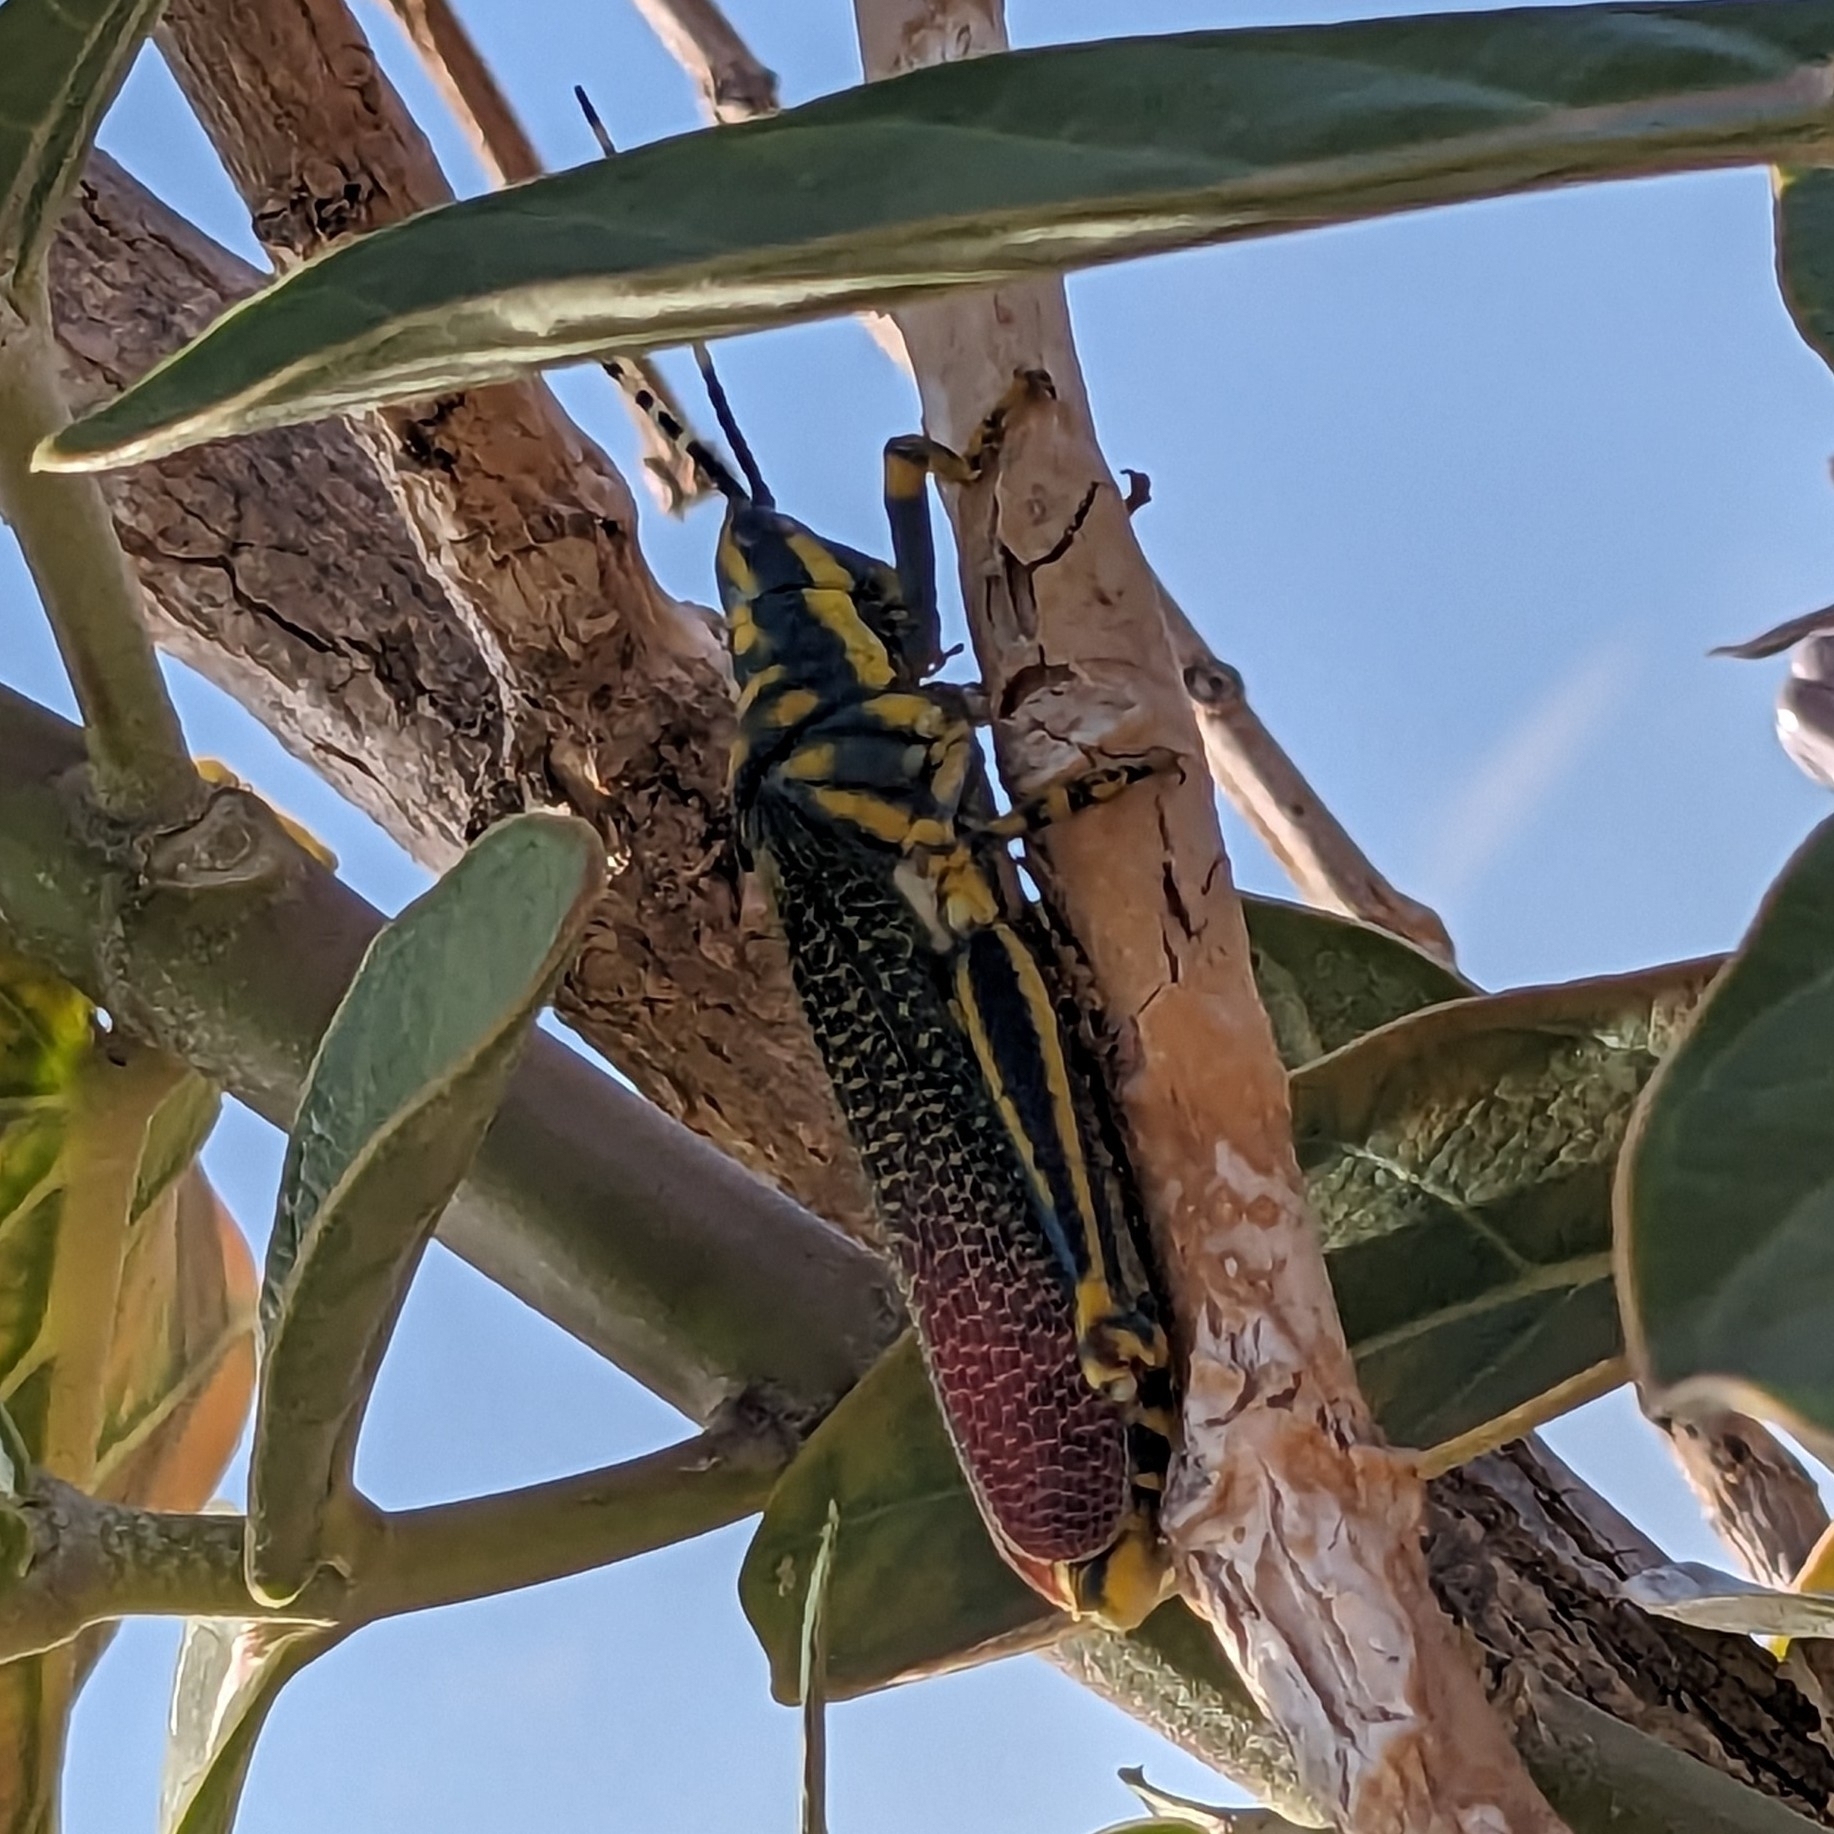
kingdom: Animalia
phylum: Arthropoda
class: Insecta
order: Orthoptera
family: Pyrgomorphidae
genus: Poekilocerus
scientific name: Poekilocerus pictus
